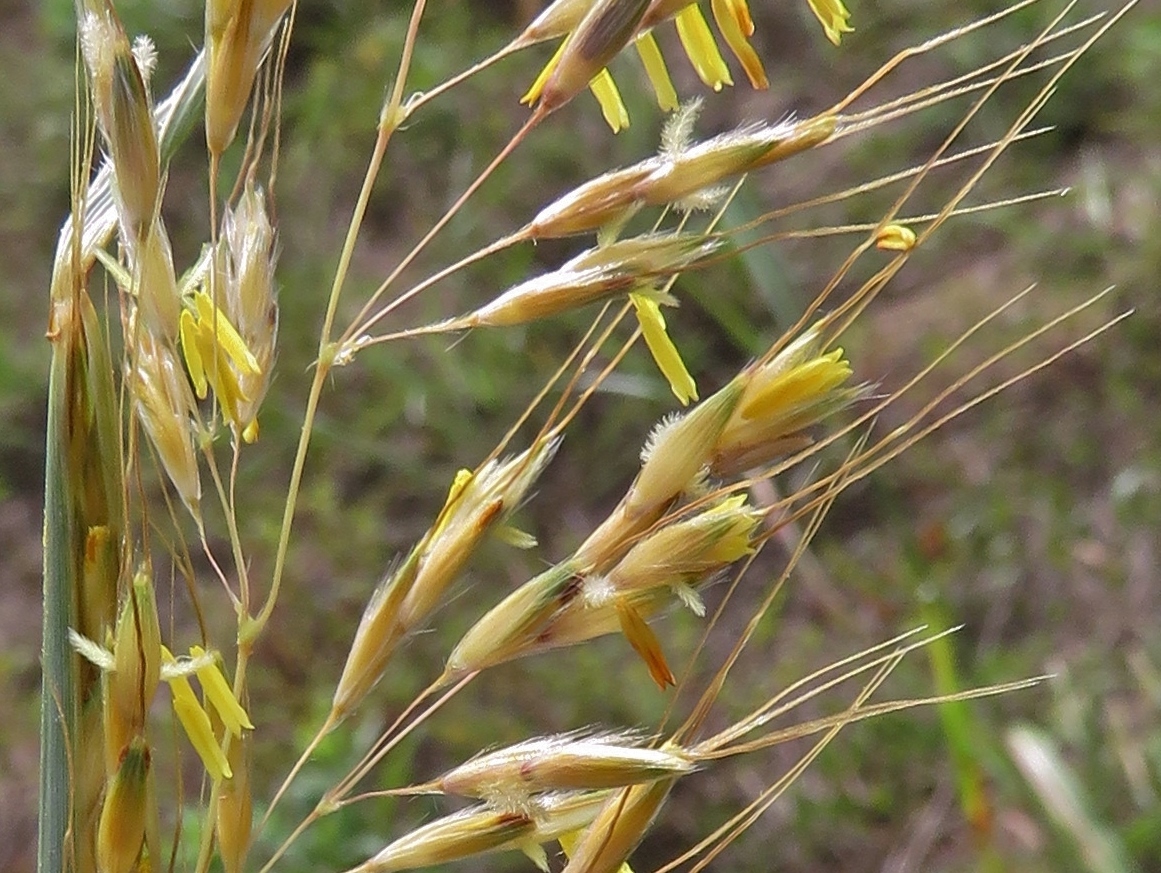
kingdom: Plantae
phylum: Tracheophyta
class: Liliopsida
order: Poales
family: Poaceae
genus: Sorghastrum
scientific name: Sorghastrum nutans
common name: Indian grass
